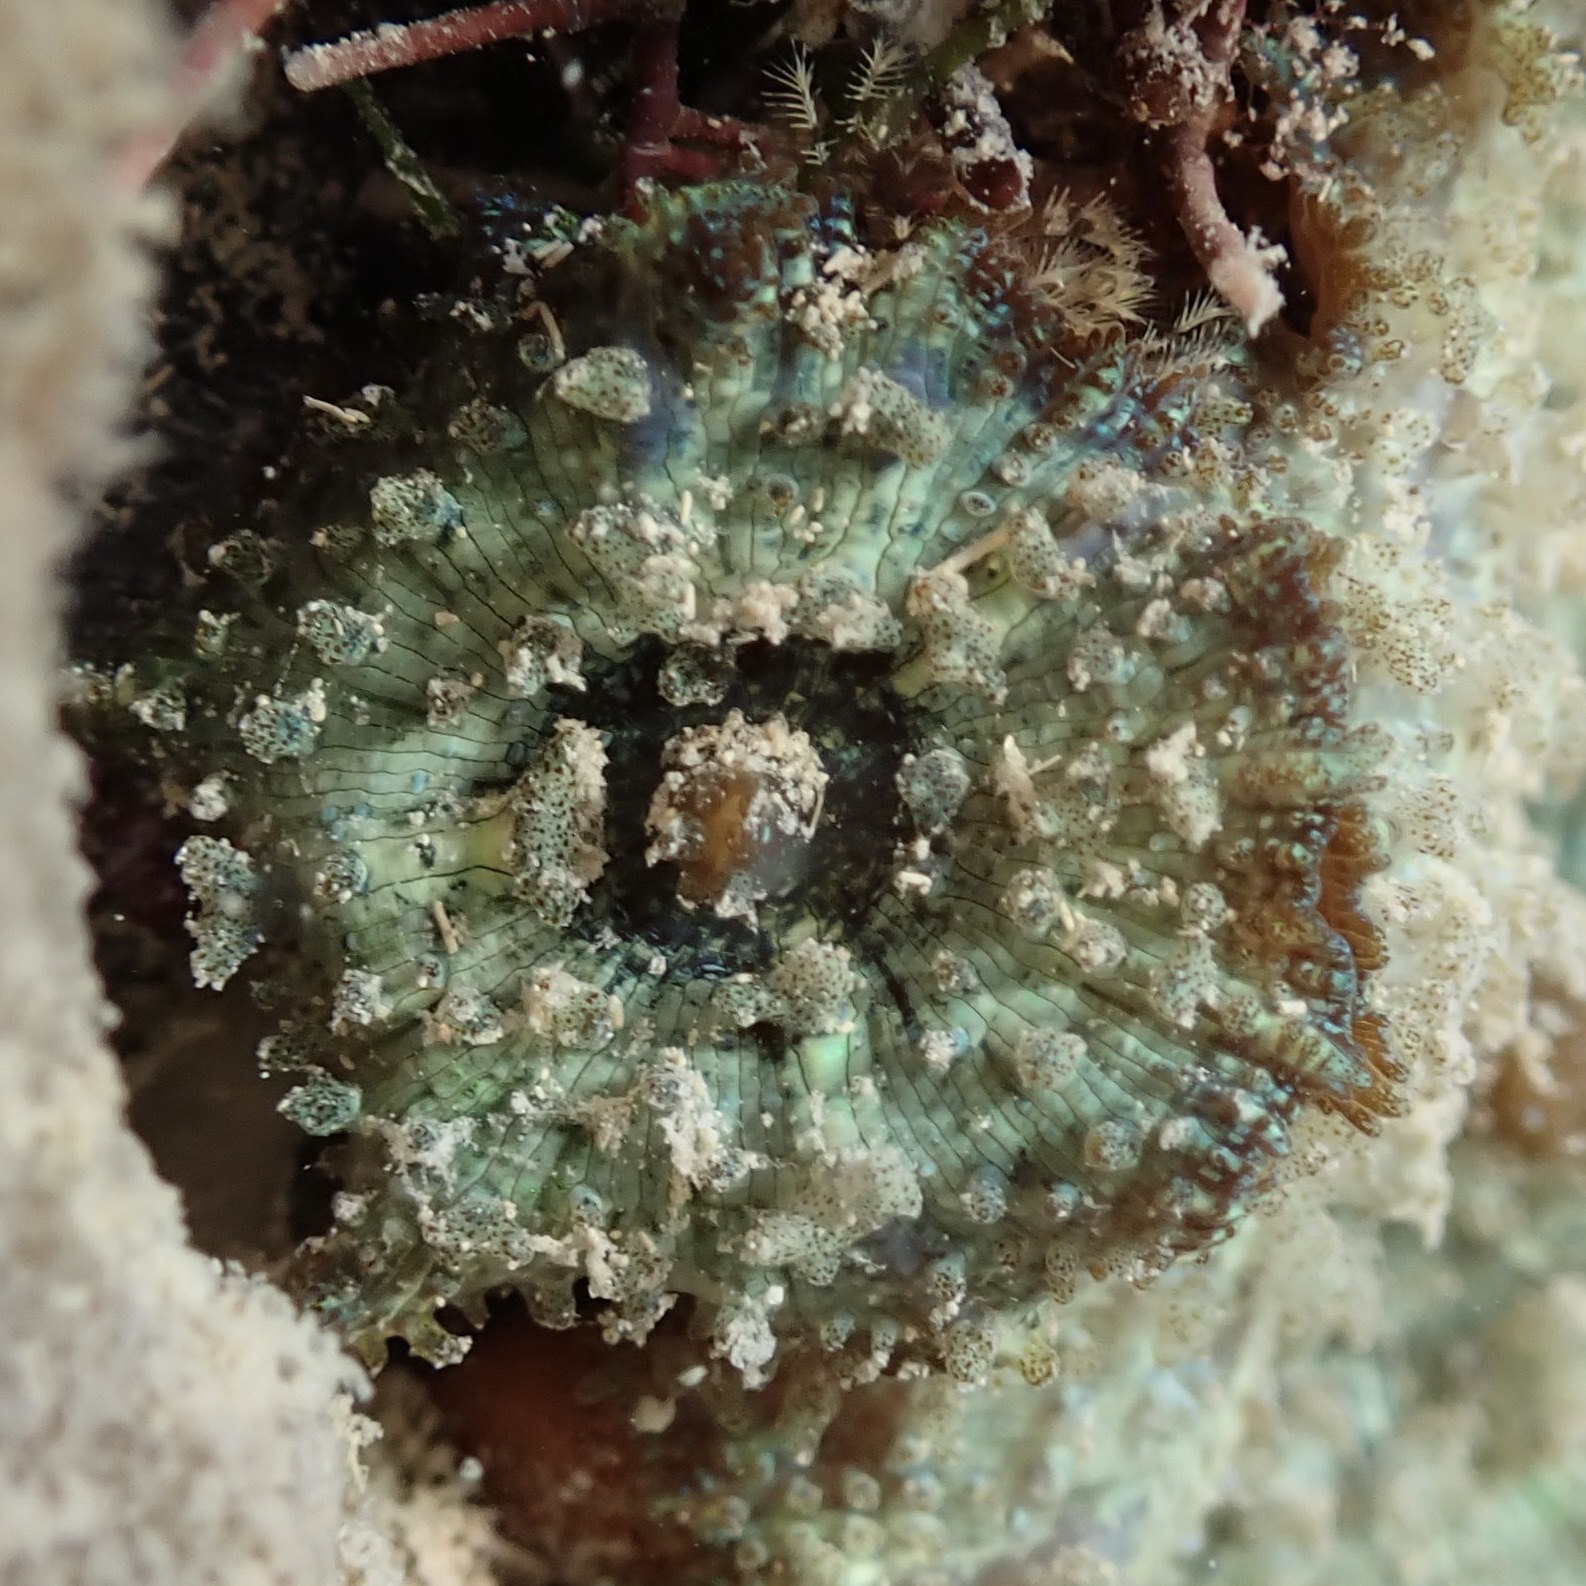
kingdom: Animalia
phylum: Cnidaria
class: Anthozoa
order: Corallimorpharia
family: Discosomidae
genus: Discosoma
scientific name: Discosoma carlgreni
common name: Forked-tentacle corallimorpharian
